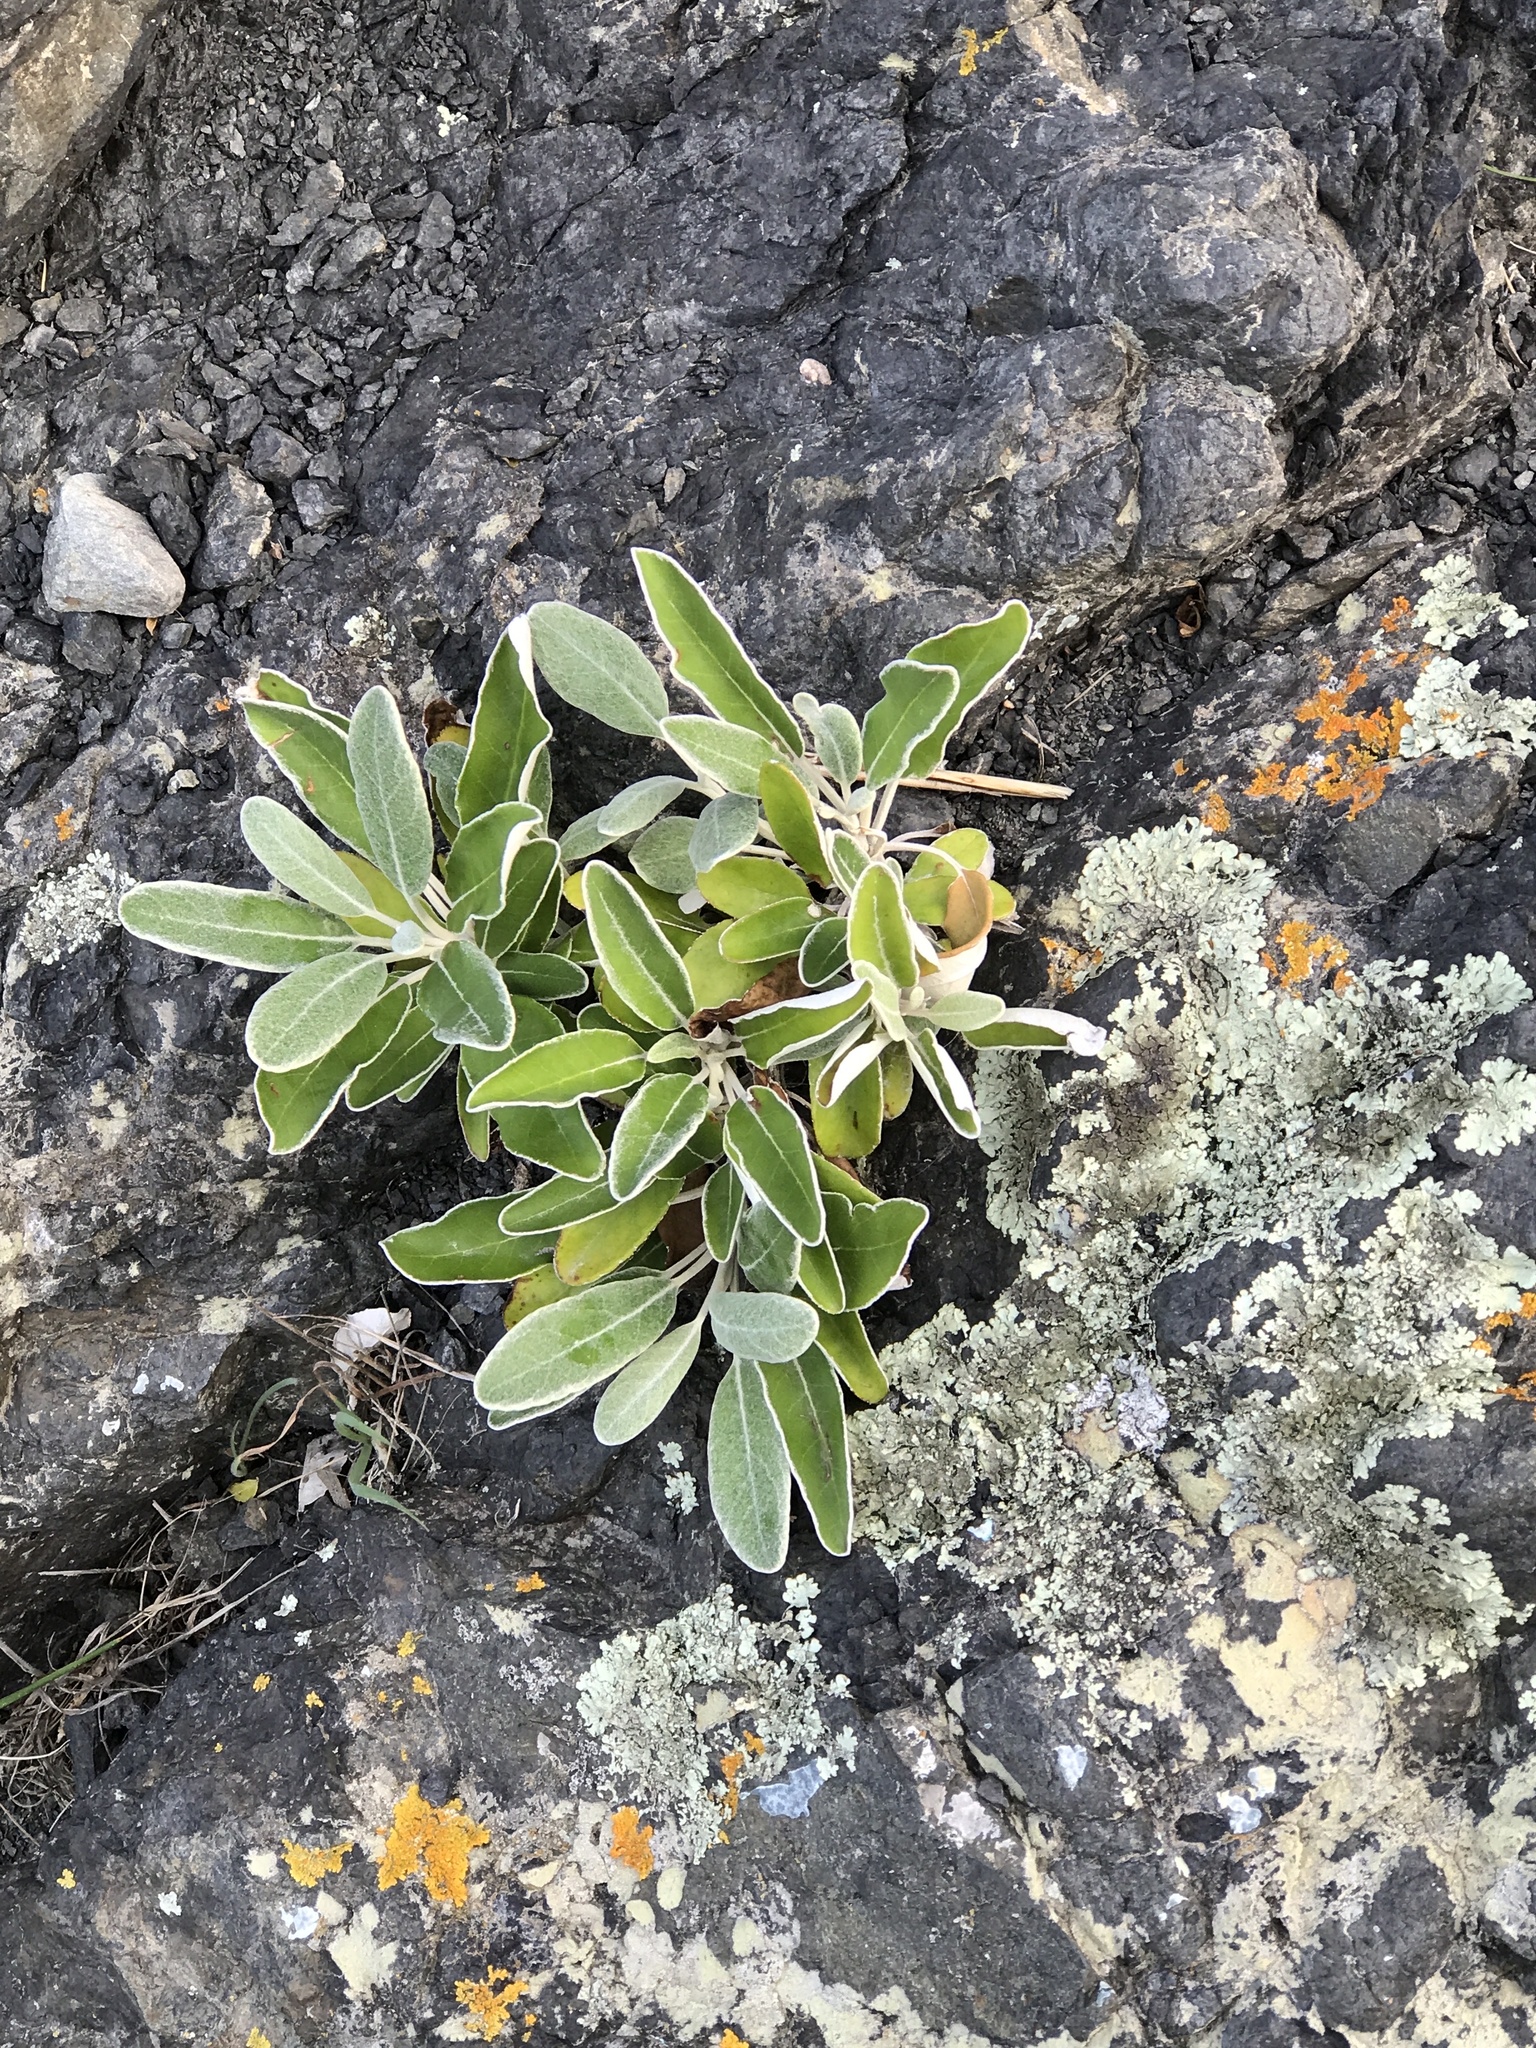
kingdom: Plantae
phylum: Tracheophyta
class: Magnoliopsida
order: Asterales
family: Asteraceae
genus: Brachyglottis
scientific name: Brachyglottis greyi
